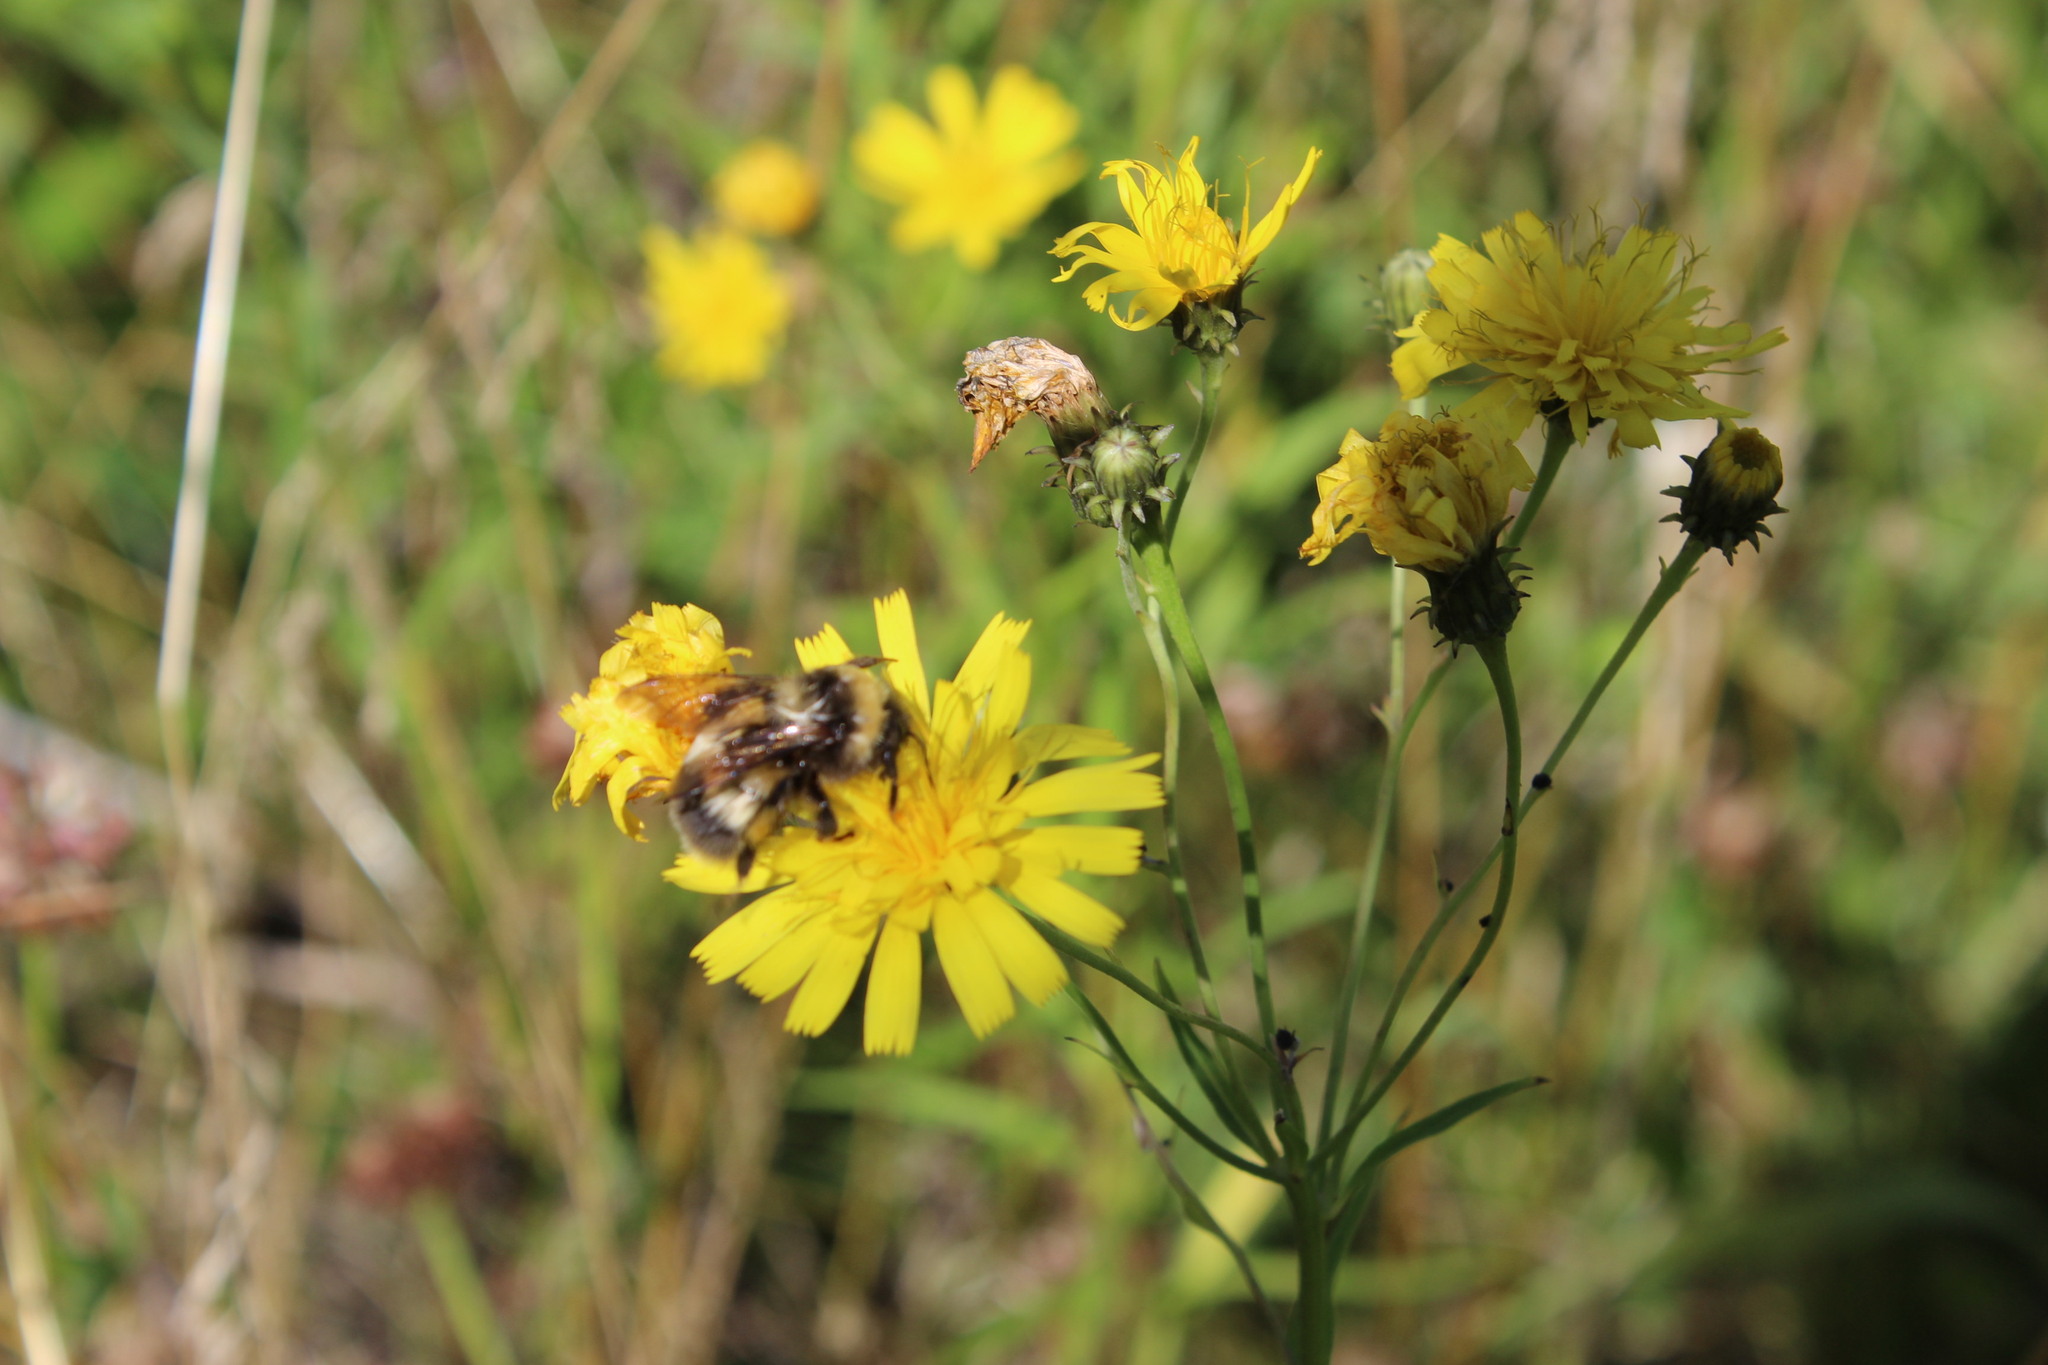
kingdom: Animalia
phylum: Arthropoda
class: Insecta
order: Hymenoptera
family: Apidae
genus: Bombus
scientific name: Bombus sporadicus
